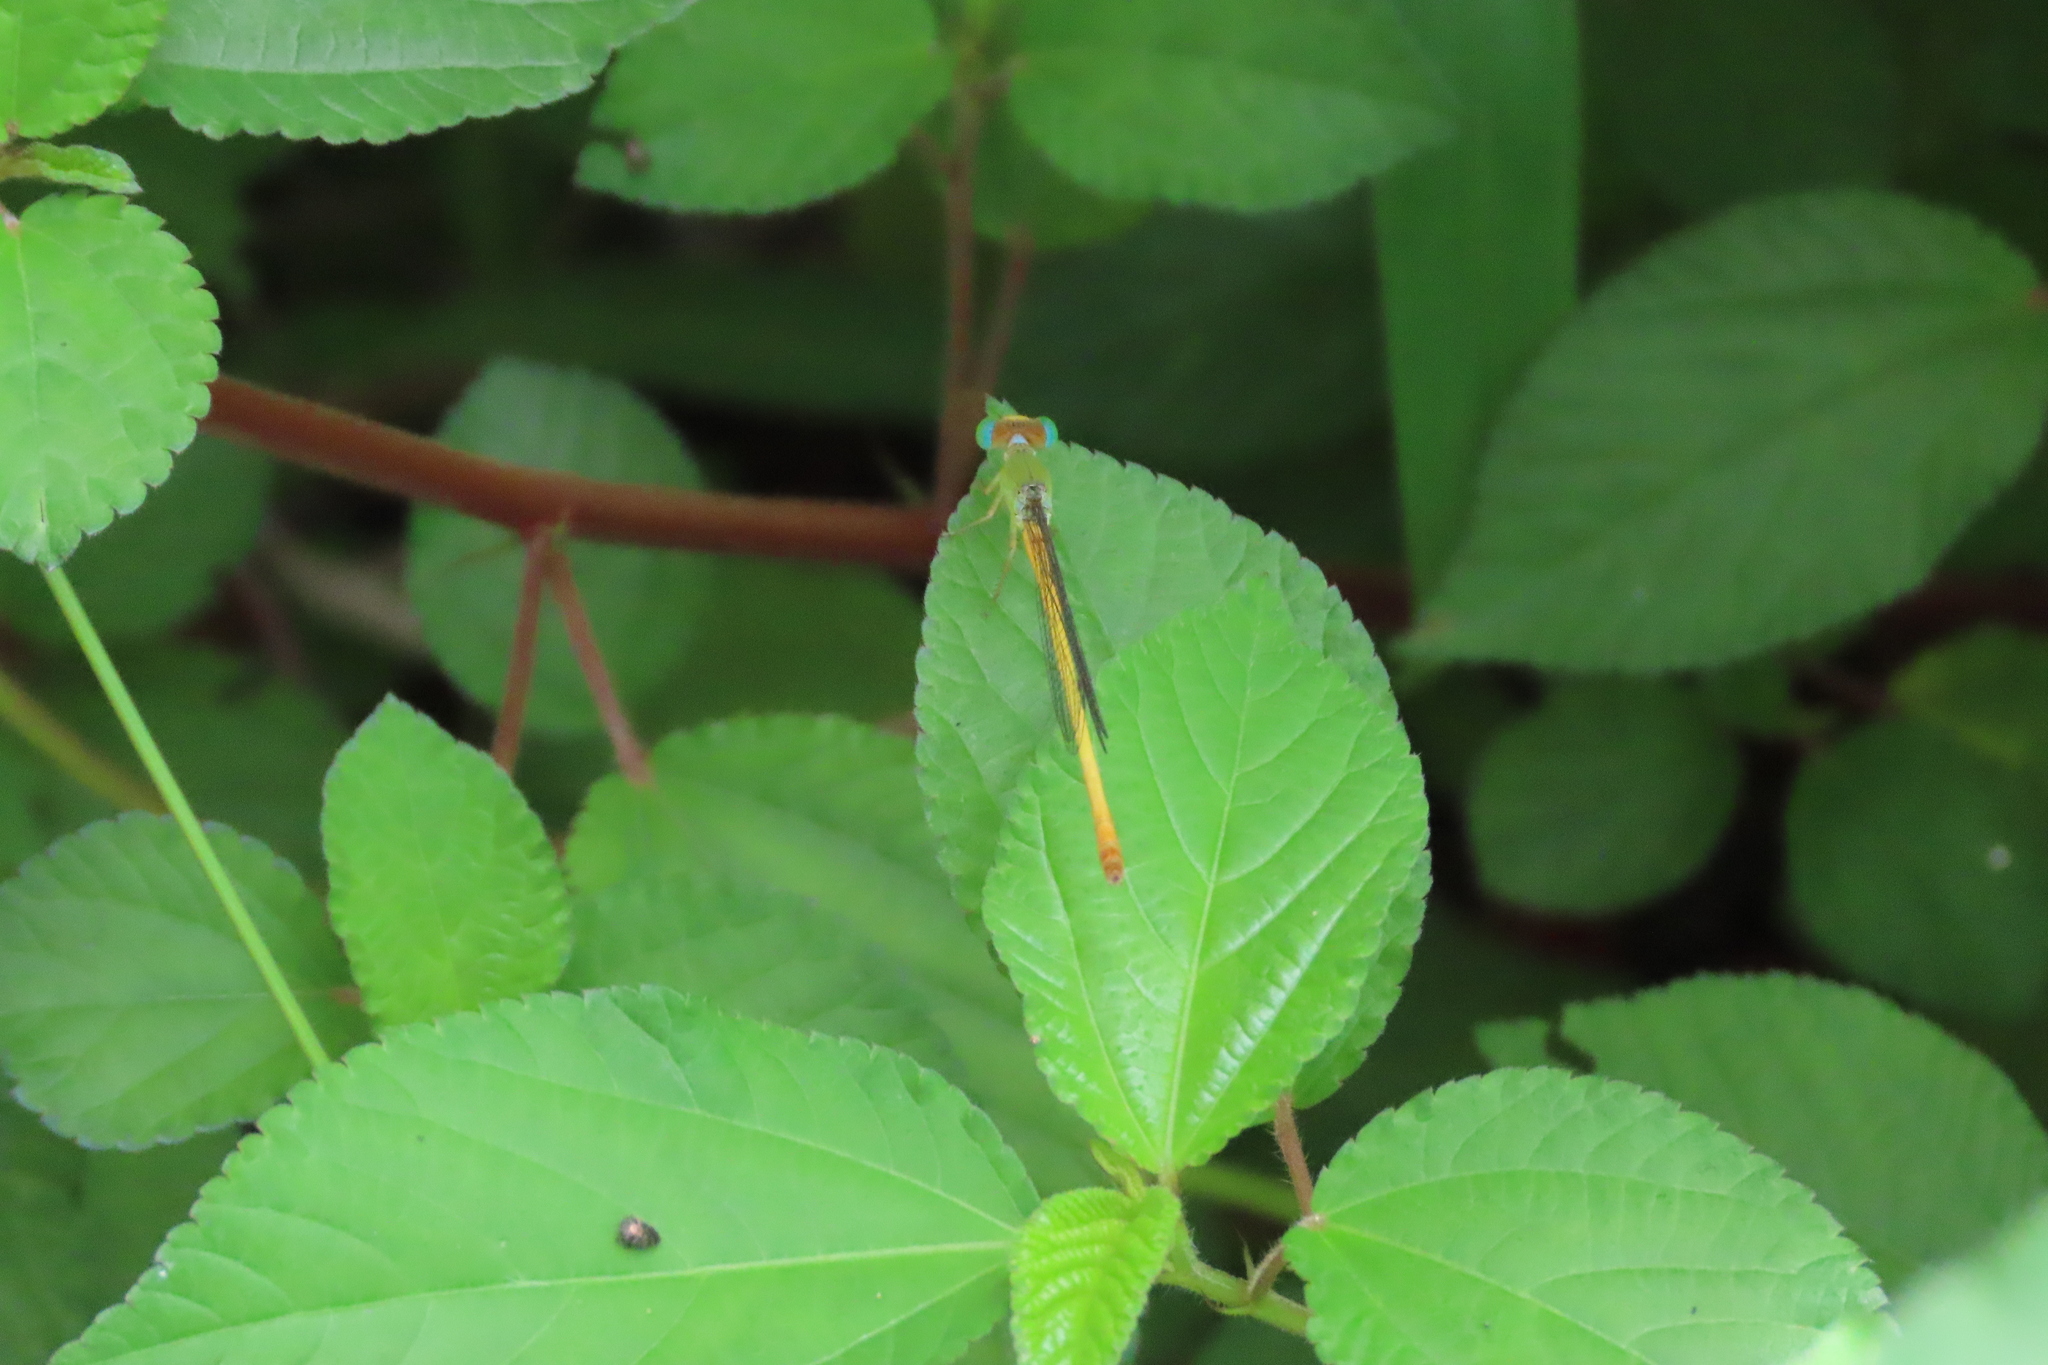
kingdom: Animalia
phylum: Arthropoda
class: Insecta
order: Odonata
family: Coenagrionidae
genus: Ceriagrion
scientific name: Ceriagrion coromandelianum
